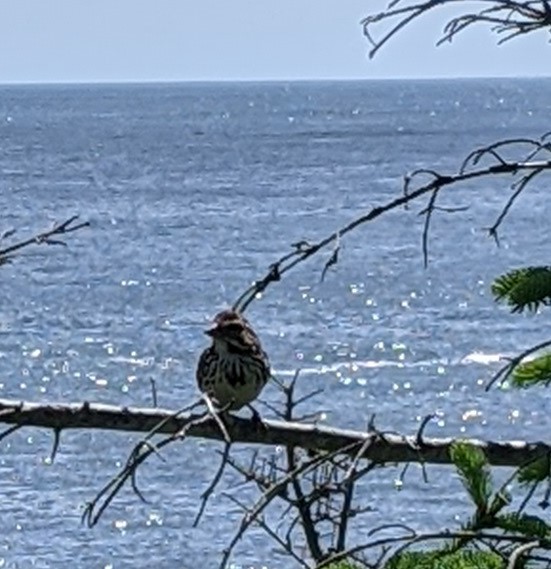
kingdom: Animalia
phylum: Chordata
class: Aves
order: Passeriformes
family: Passerellidae
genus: Melospiza
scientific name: Melospiza melodia
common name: Song sparrow
